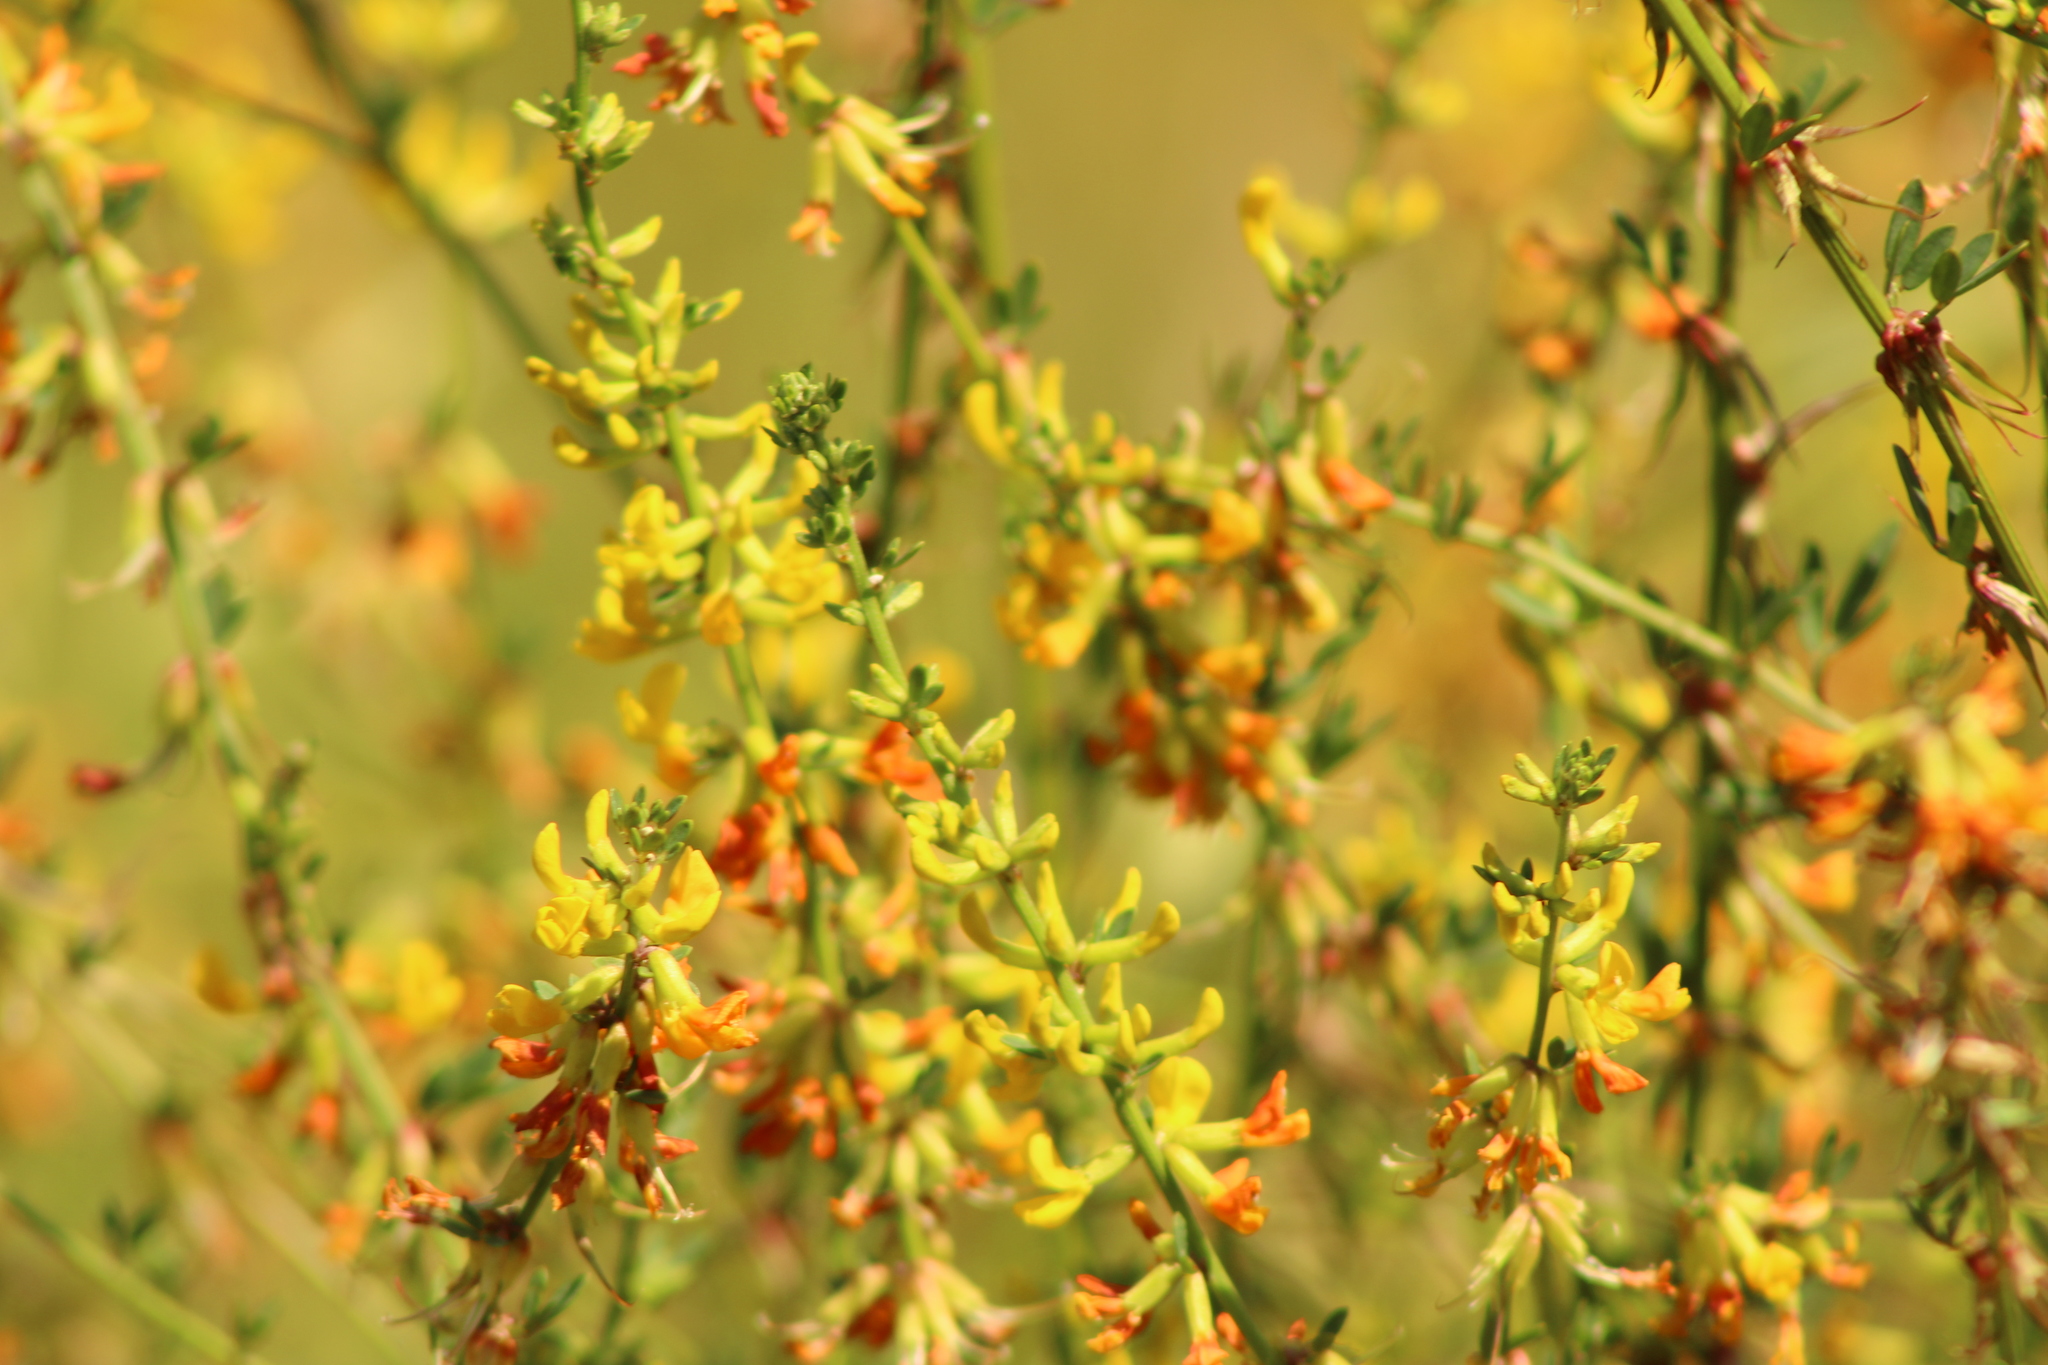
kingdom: Plantae
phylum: Tracheophyta
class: Magnoliopsida
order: Fabales
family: Fabaceae
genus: Acmispon
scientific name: Acmispon glaber
